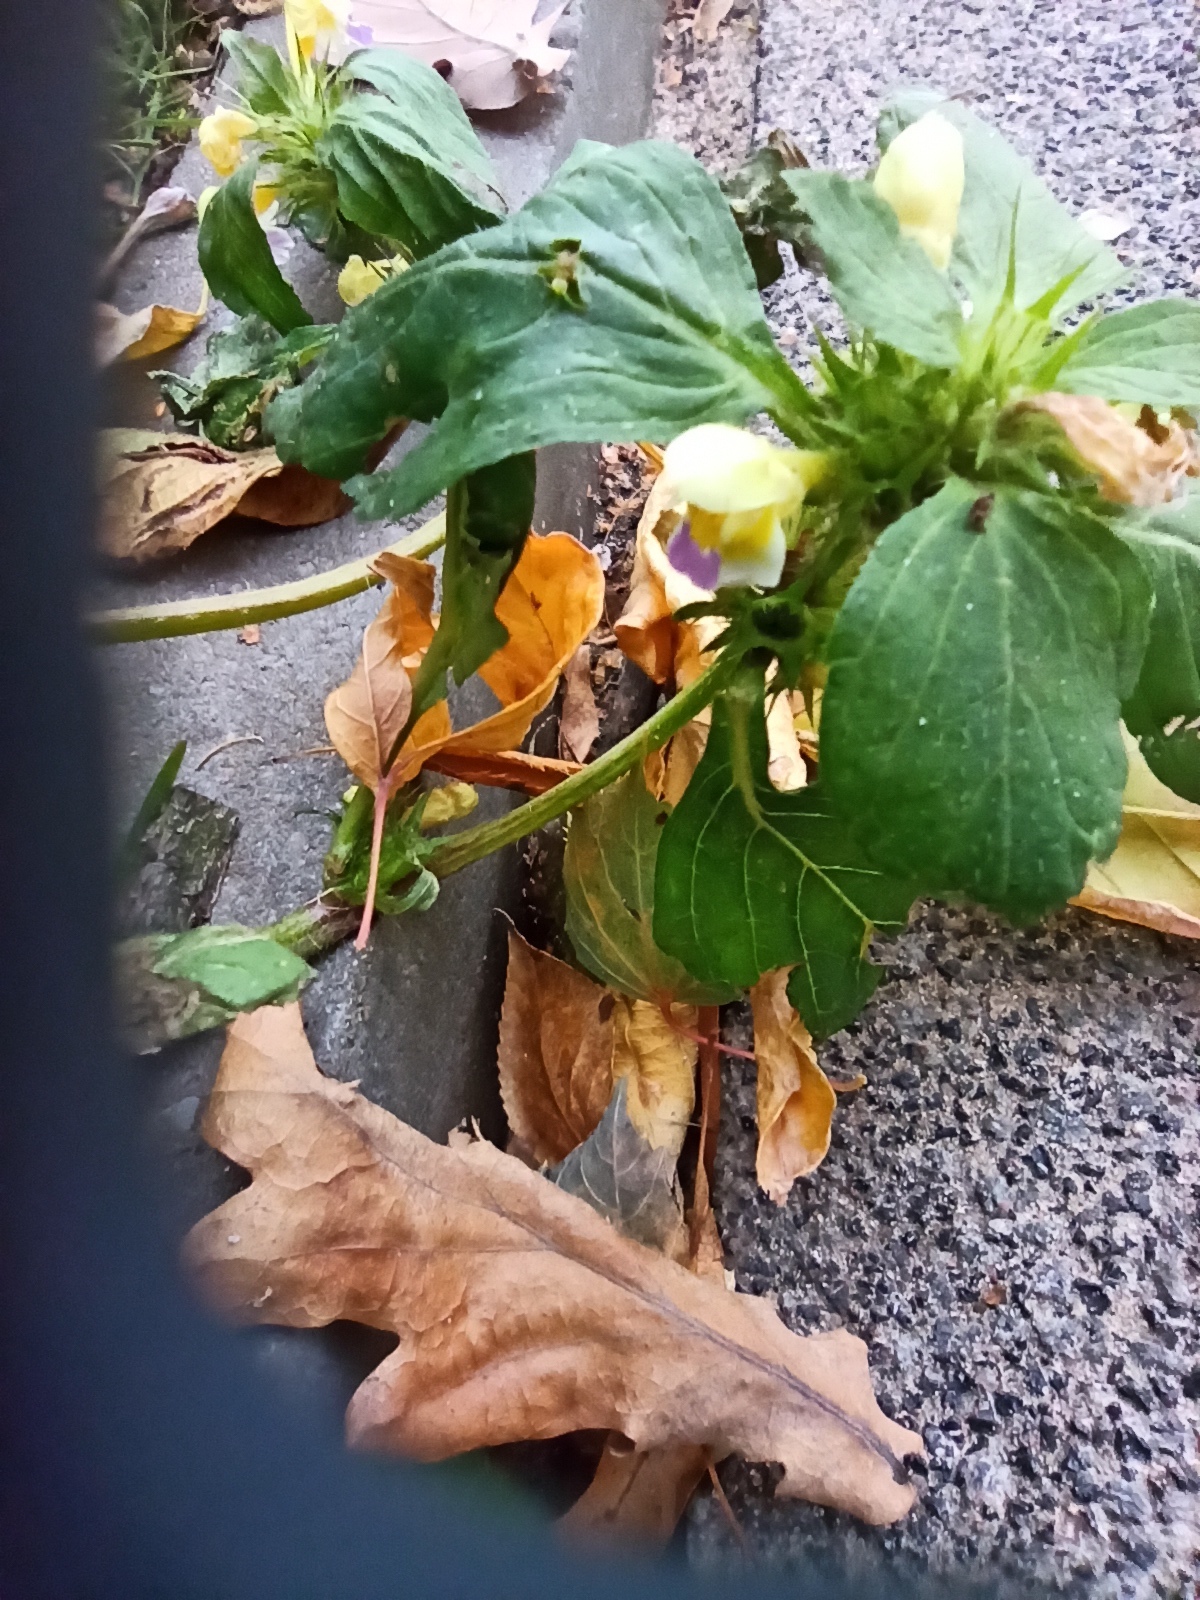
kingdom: Plantae
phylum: Tracheophyta
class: Magnoliopsida
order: Lamiales
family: Lamiaceae
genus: Galeopsis
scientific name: Galeopsis speciosa
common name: Large-flowered hemp-nettle
